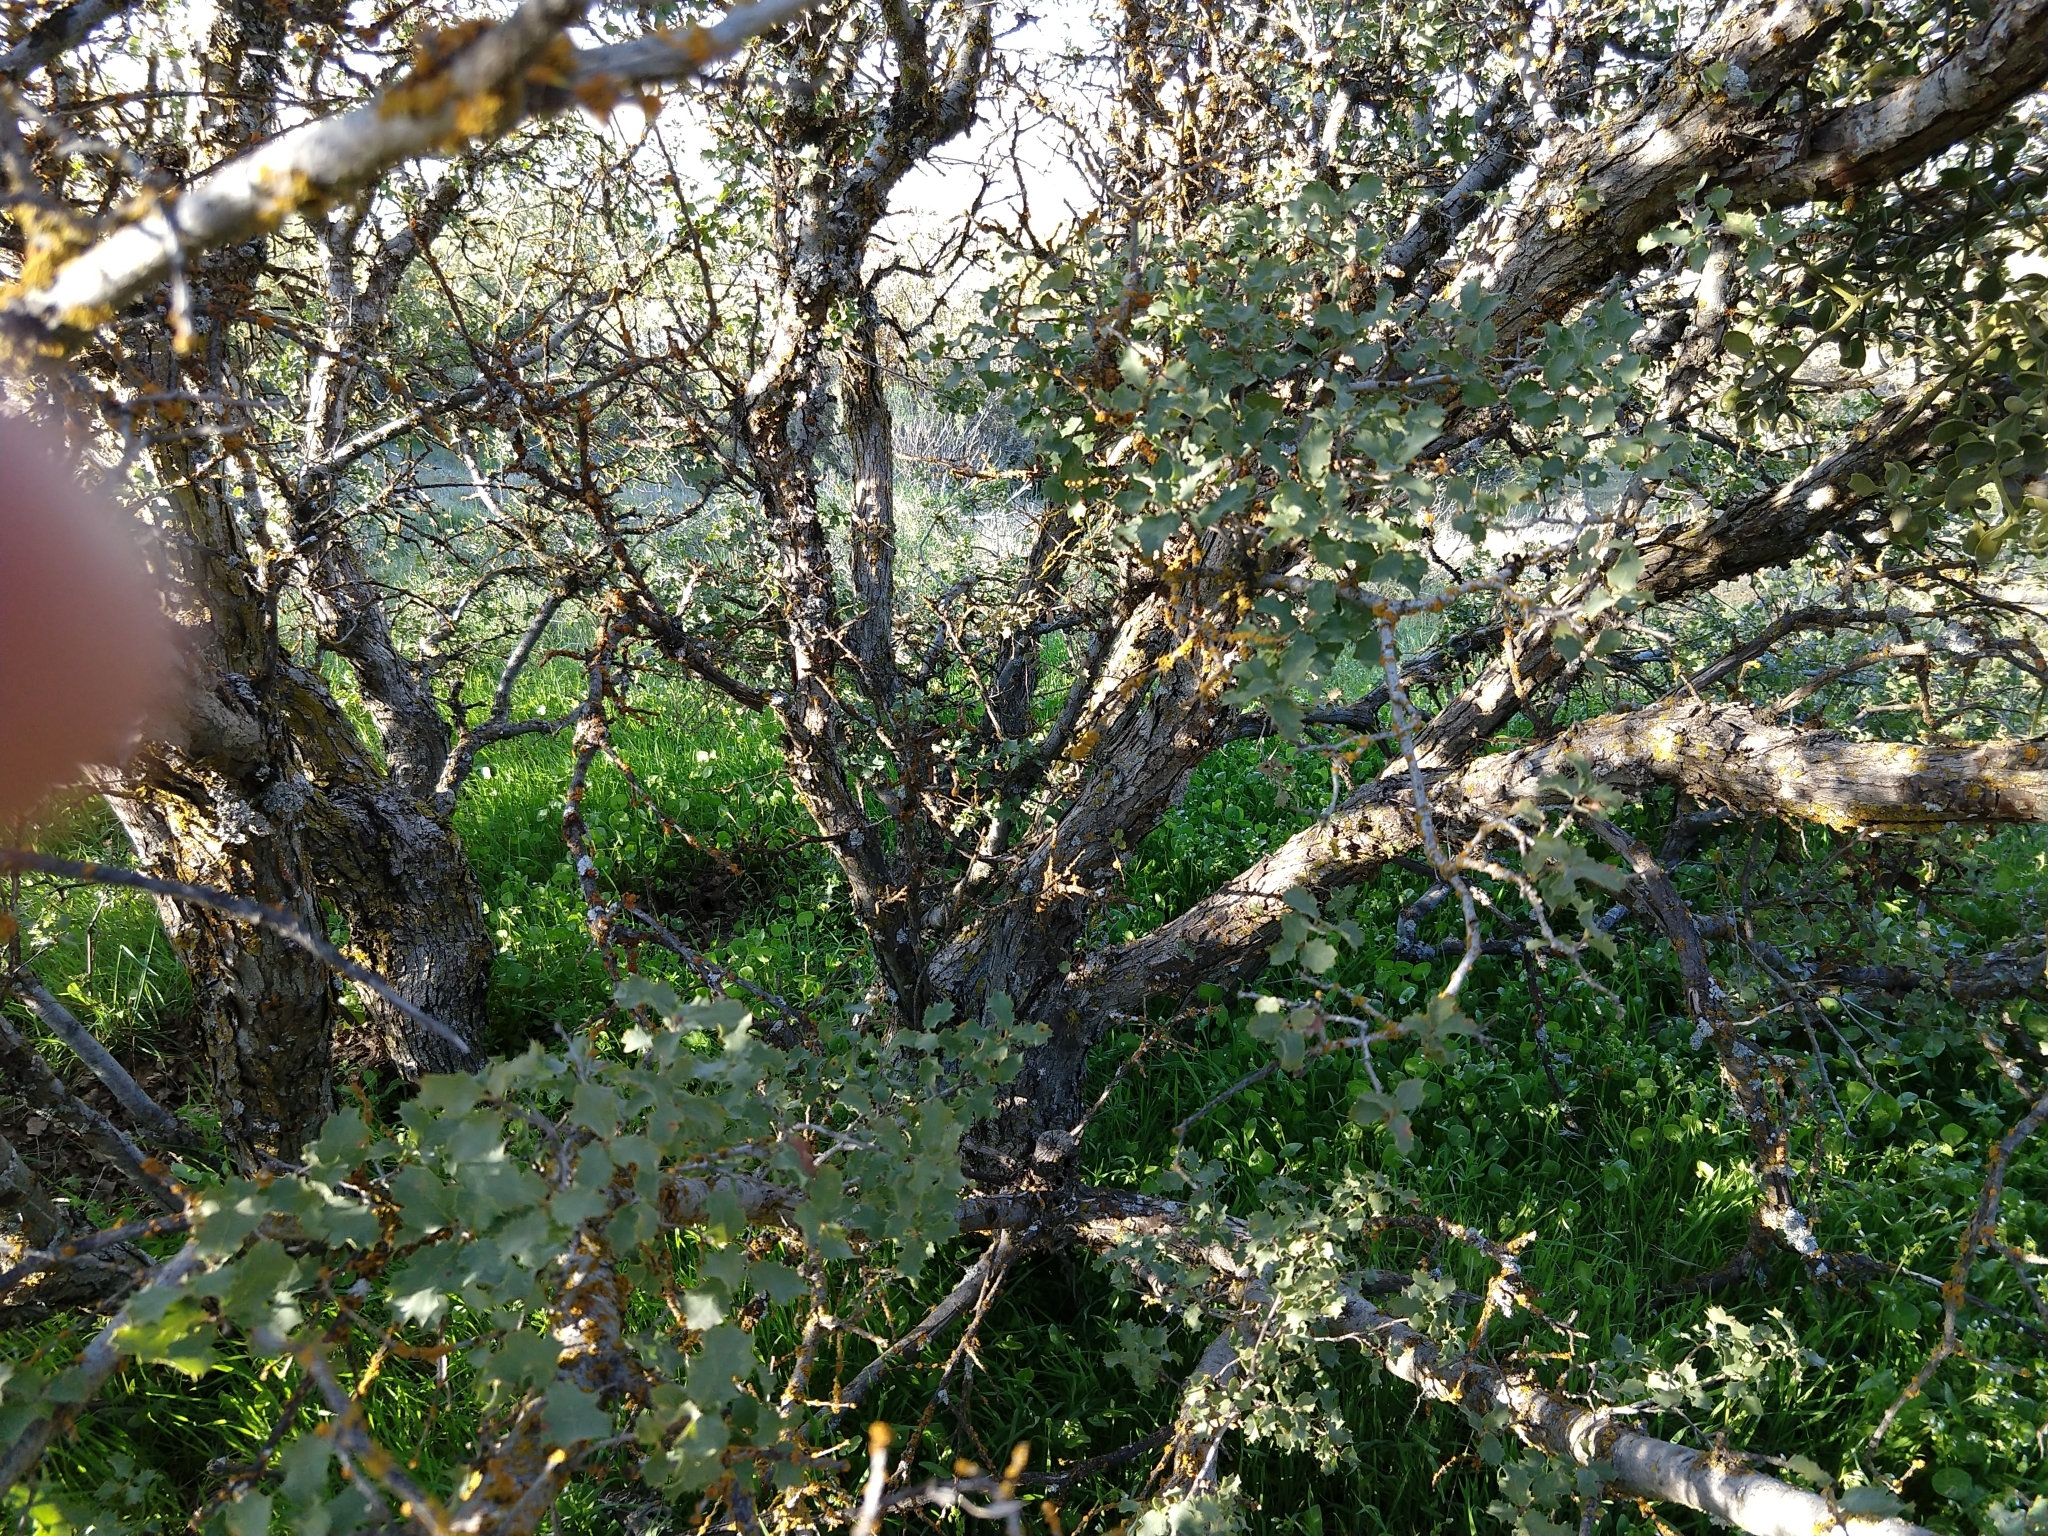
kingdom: Plantae
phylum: Tracheophyta
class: Magnoliopsida
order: Fagales
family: Fagaceae
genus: Quercus
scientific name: Quercus john-tuckeri
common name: Tucker's oak
